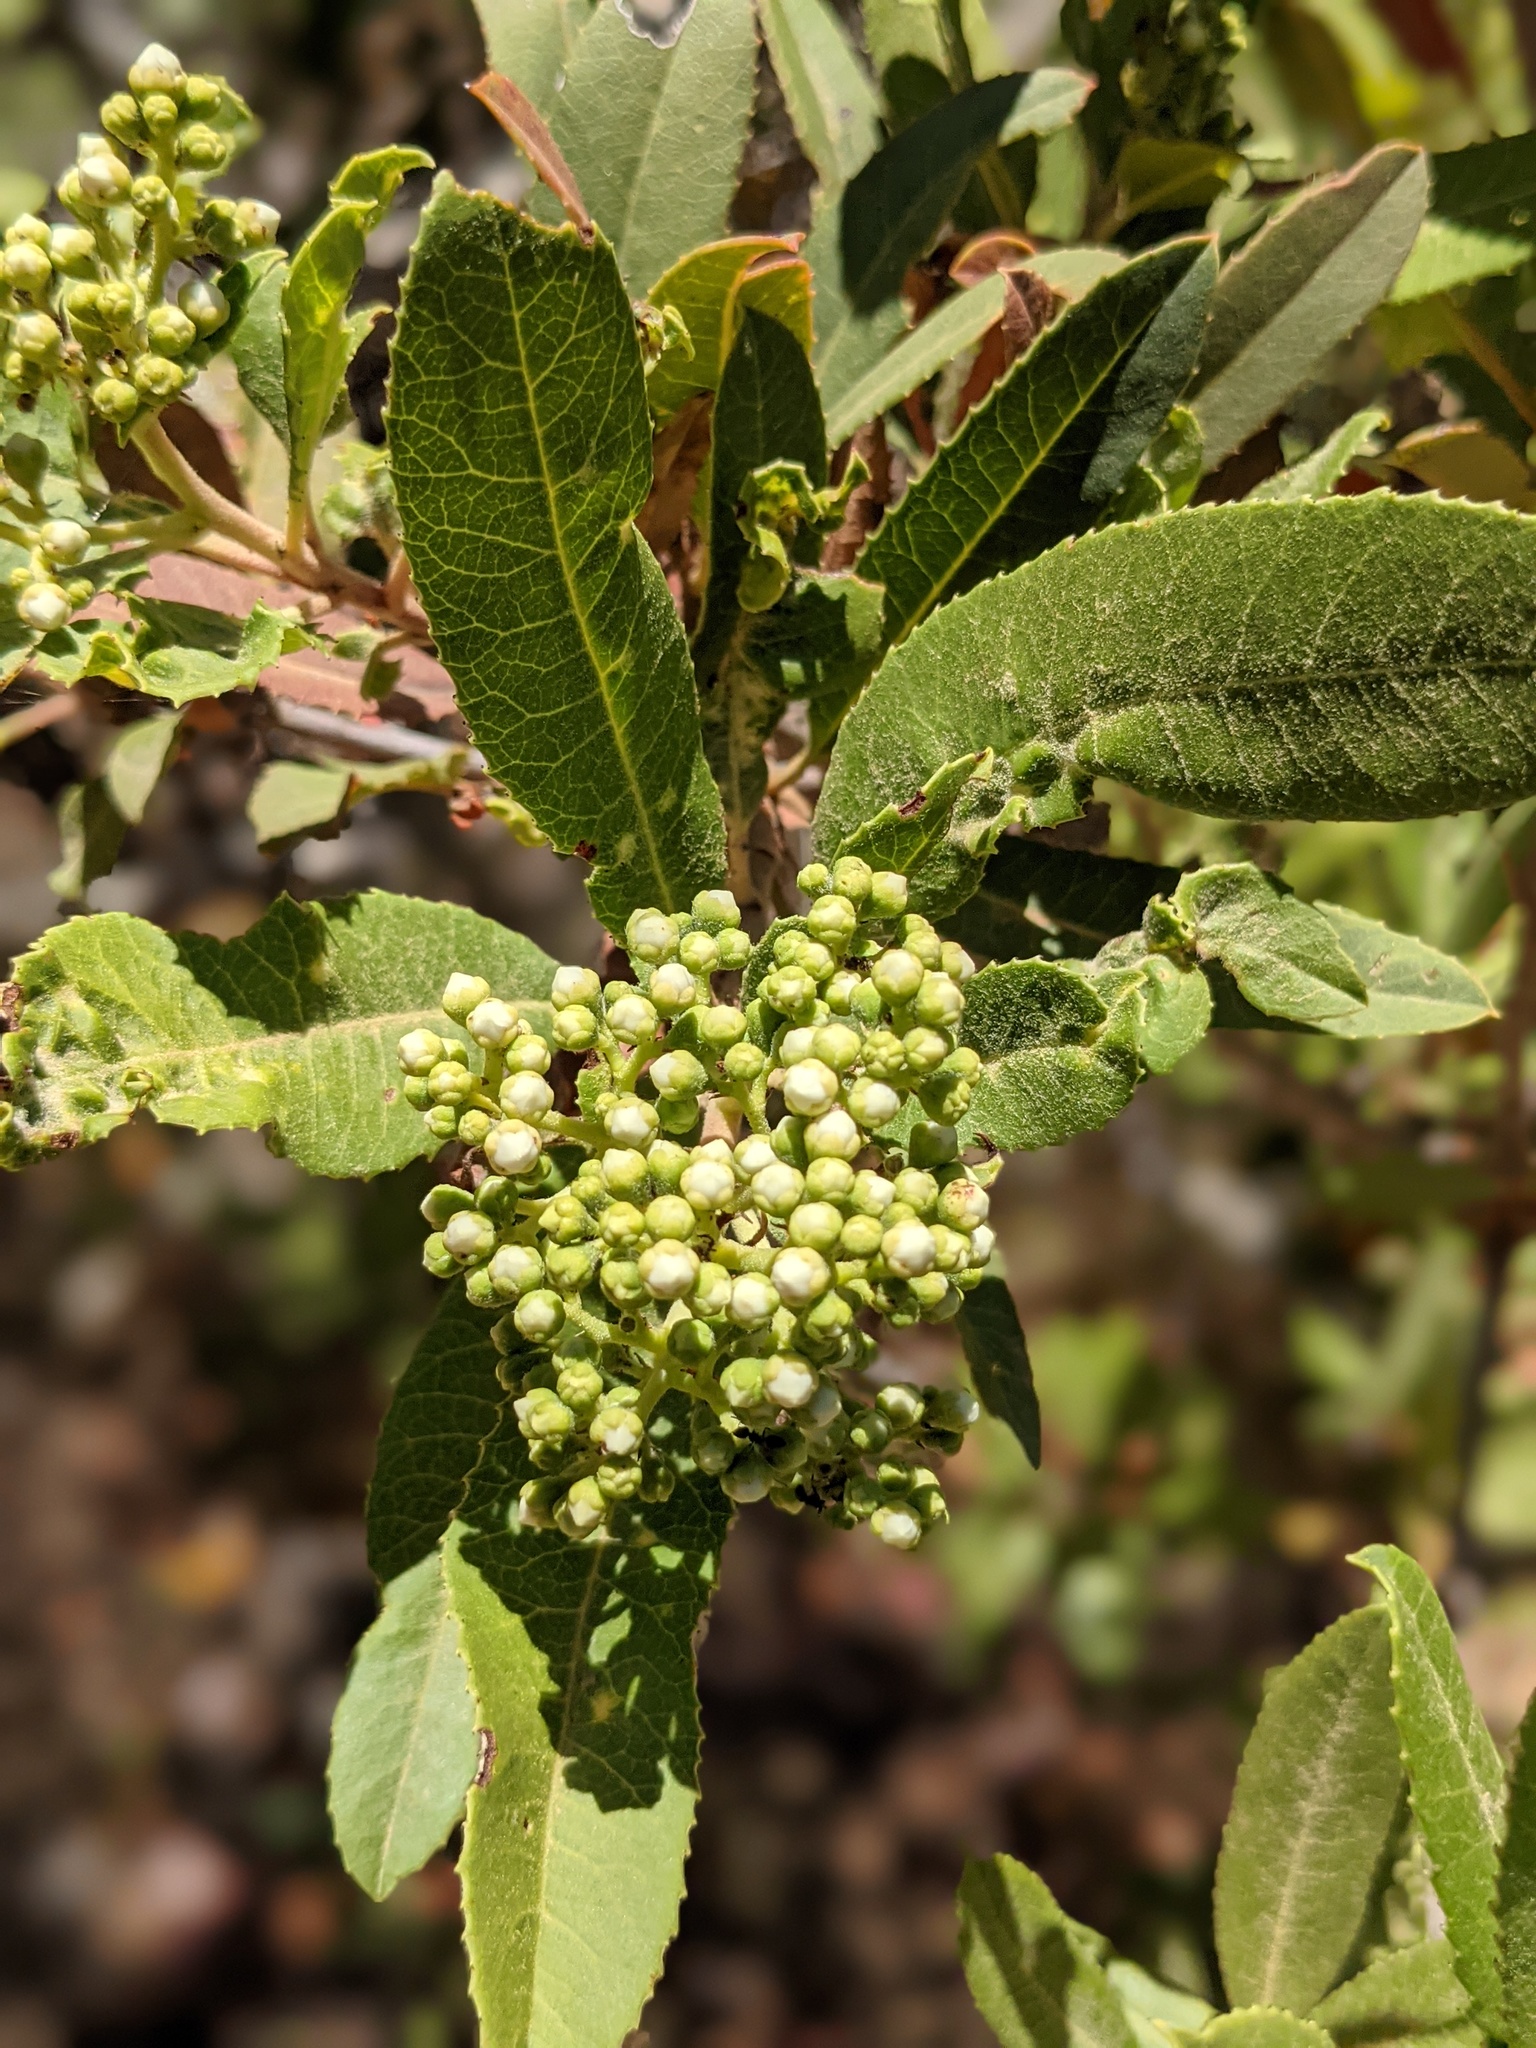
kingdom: Plantae
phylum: Tracheophyta
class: Magnoliopsida
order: Rosales
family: Rosaceae
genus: Heteromeles
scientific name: Heteromeles arbutifolia
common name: California-holly
